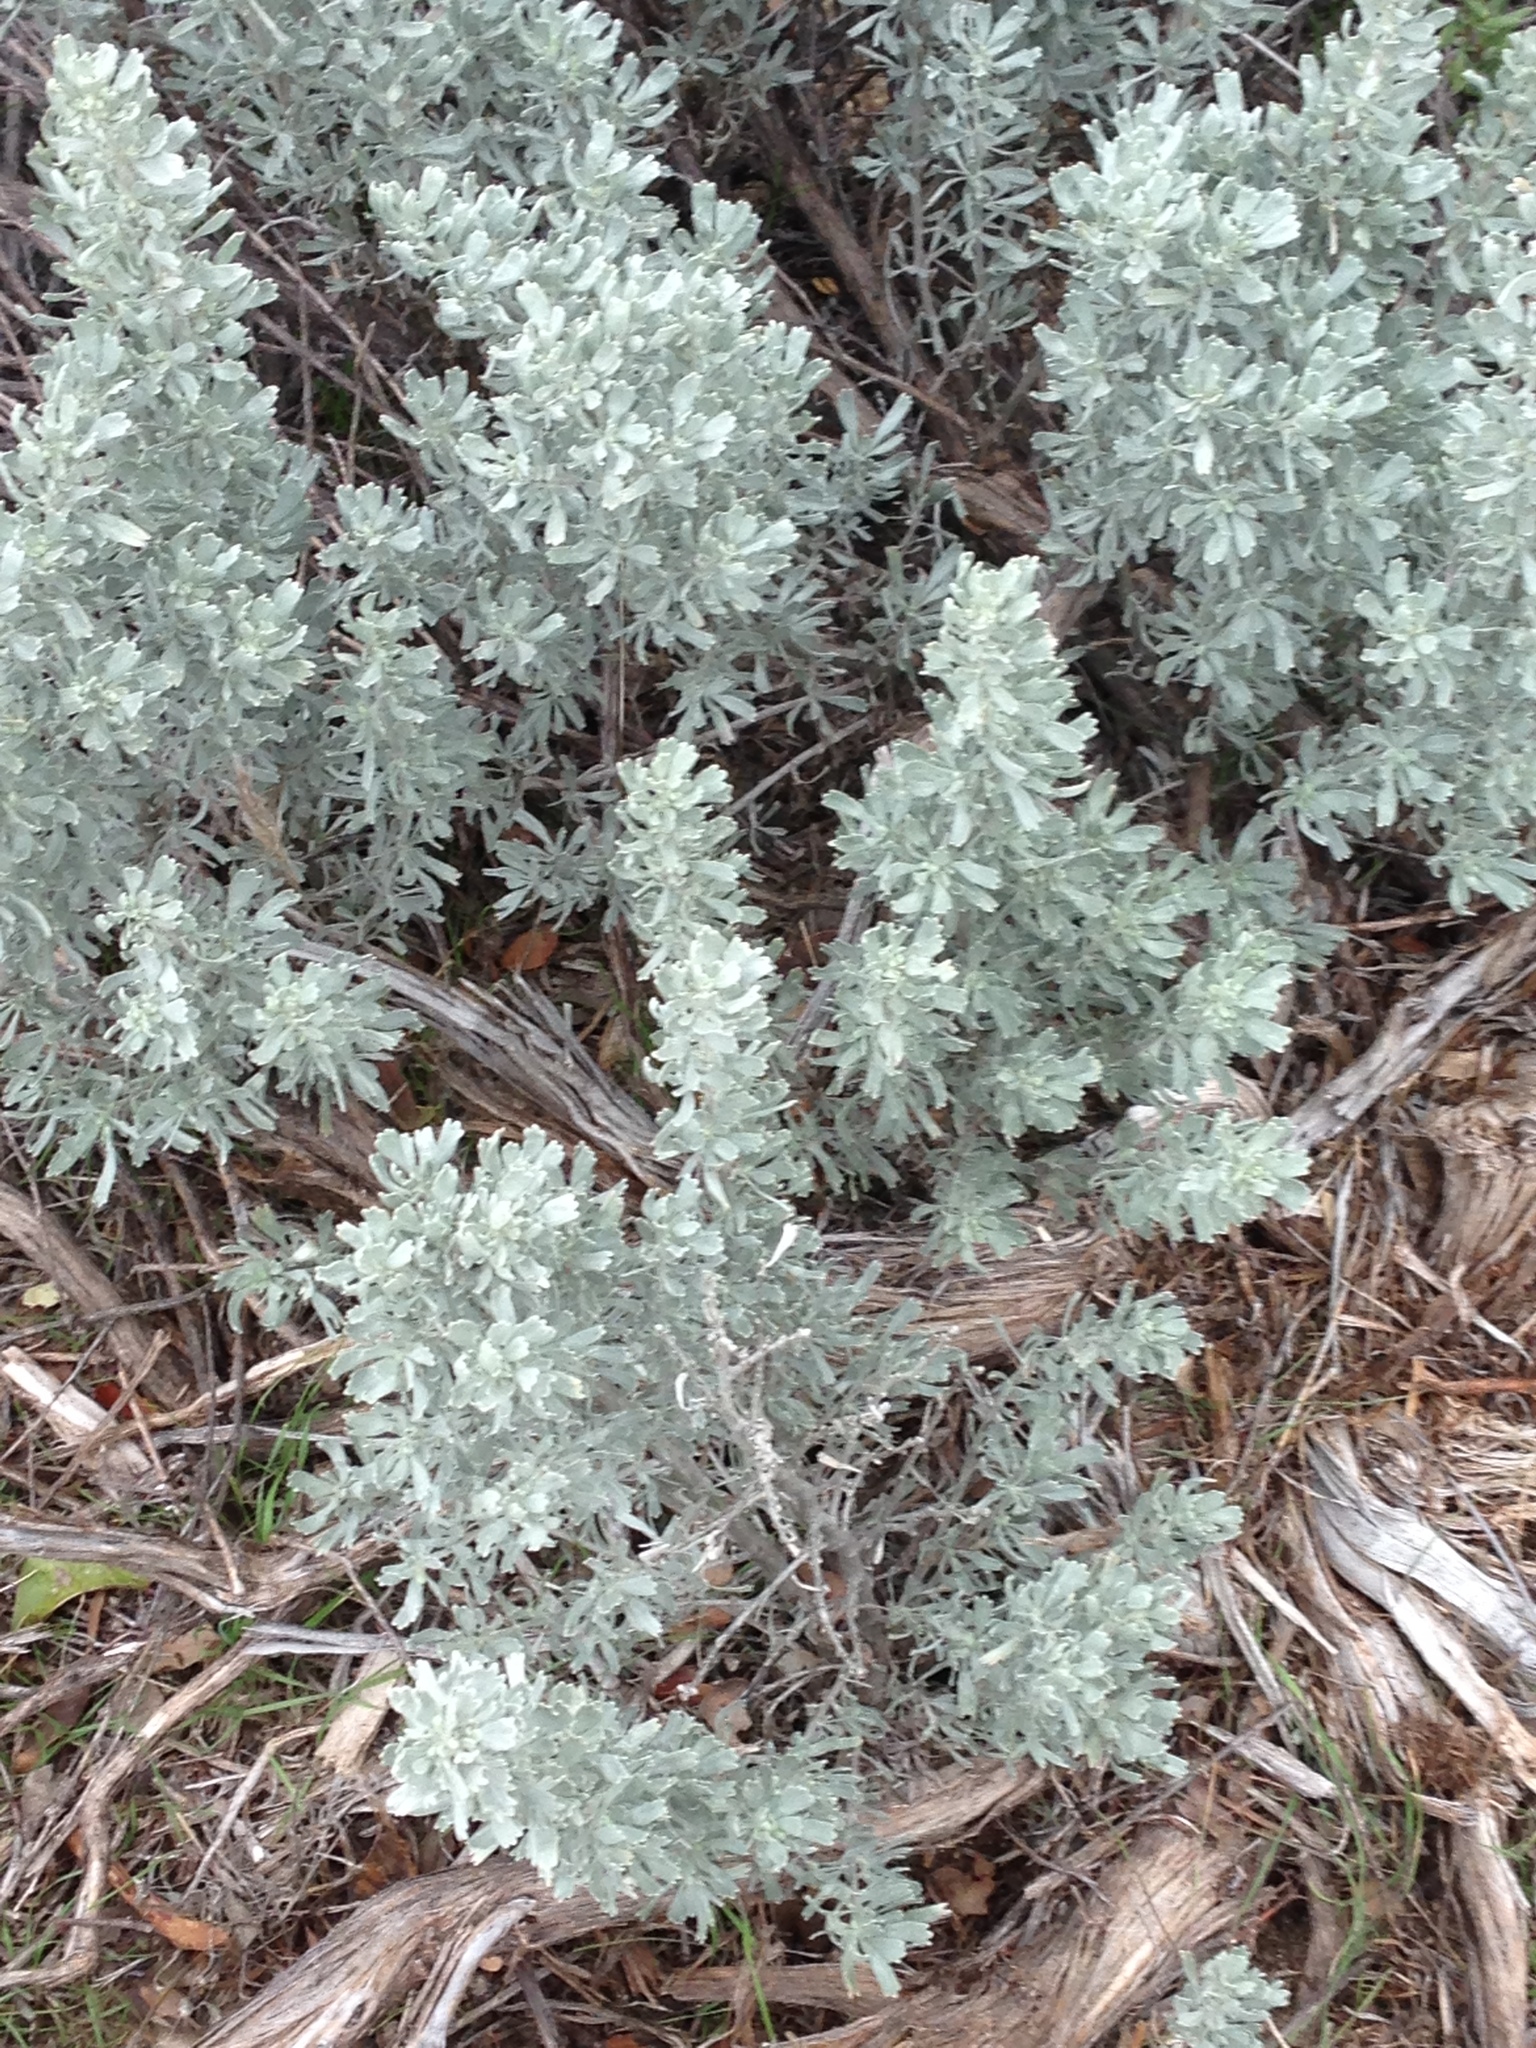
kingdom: Plantae
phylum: Tracheophyta
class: Magnoliopsida
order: Asterales
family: Asteraceae
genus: Artemisia
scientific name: Artemisia tridentata
